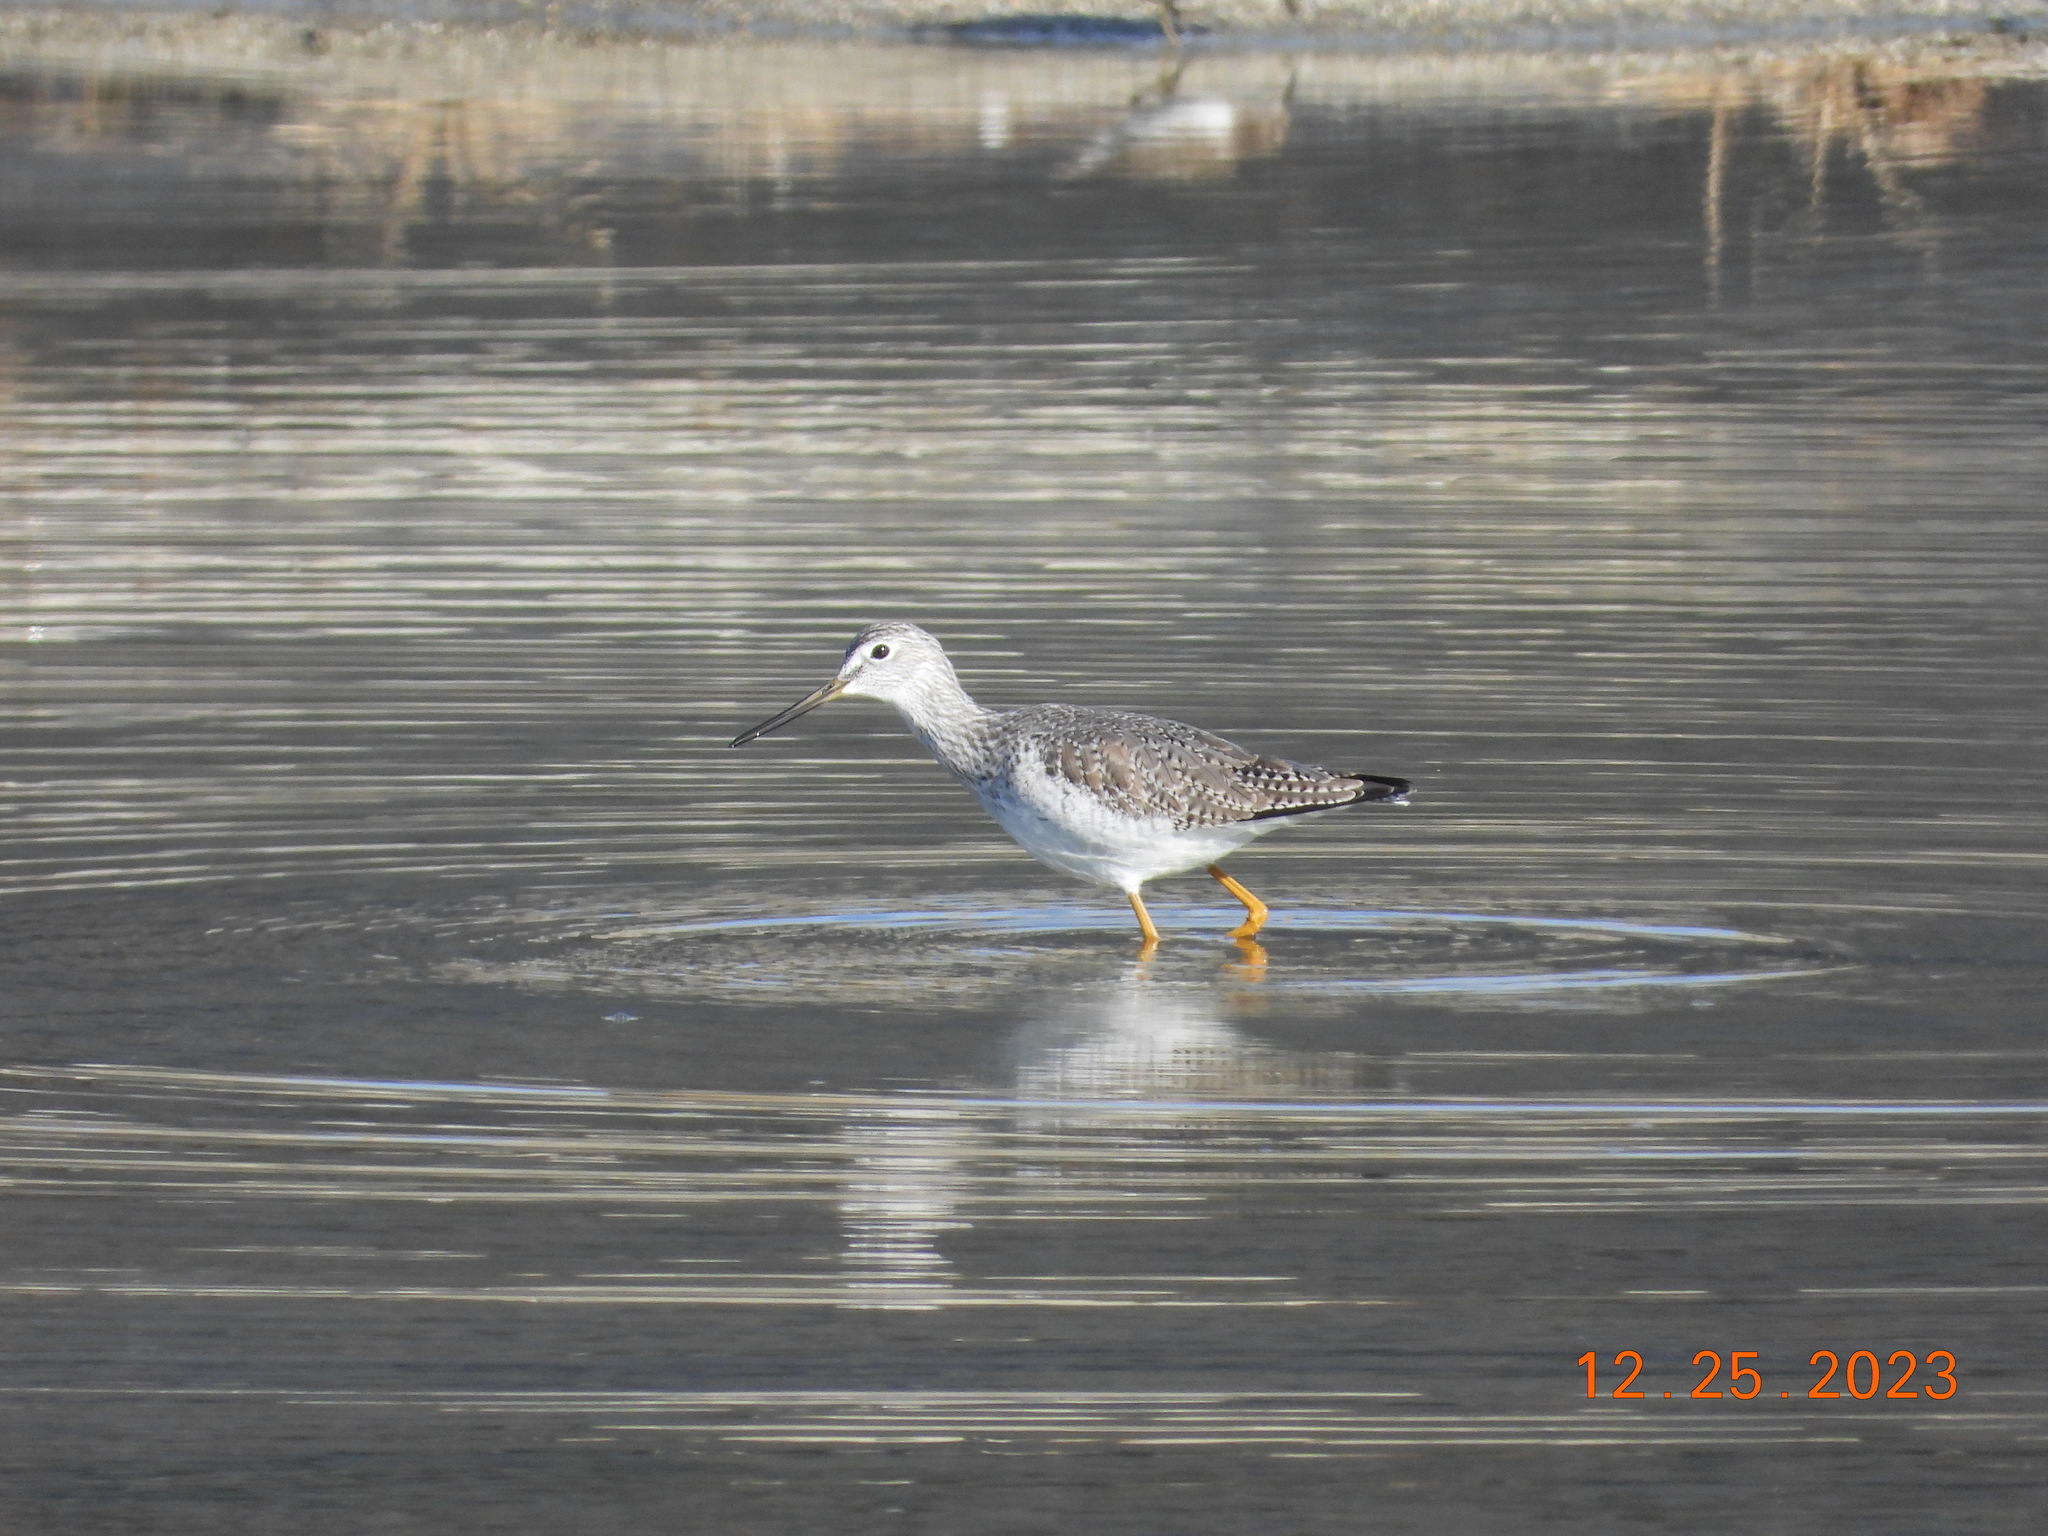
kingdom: Animalia
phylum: Chordata
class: Aves
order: Charadriiformes
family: Scolopacidae
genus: Tringa
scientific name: Tringa melanoleuca
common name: Greater yellowlegs
